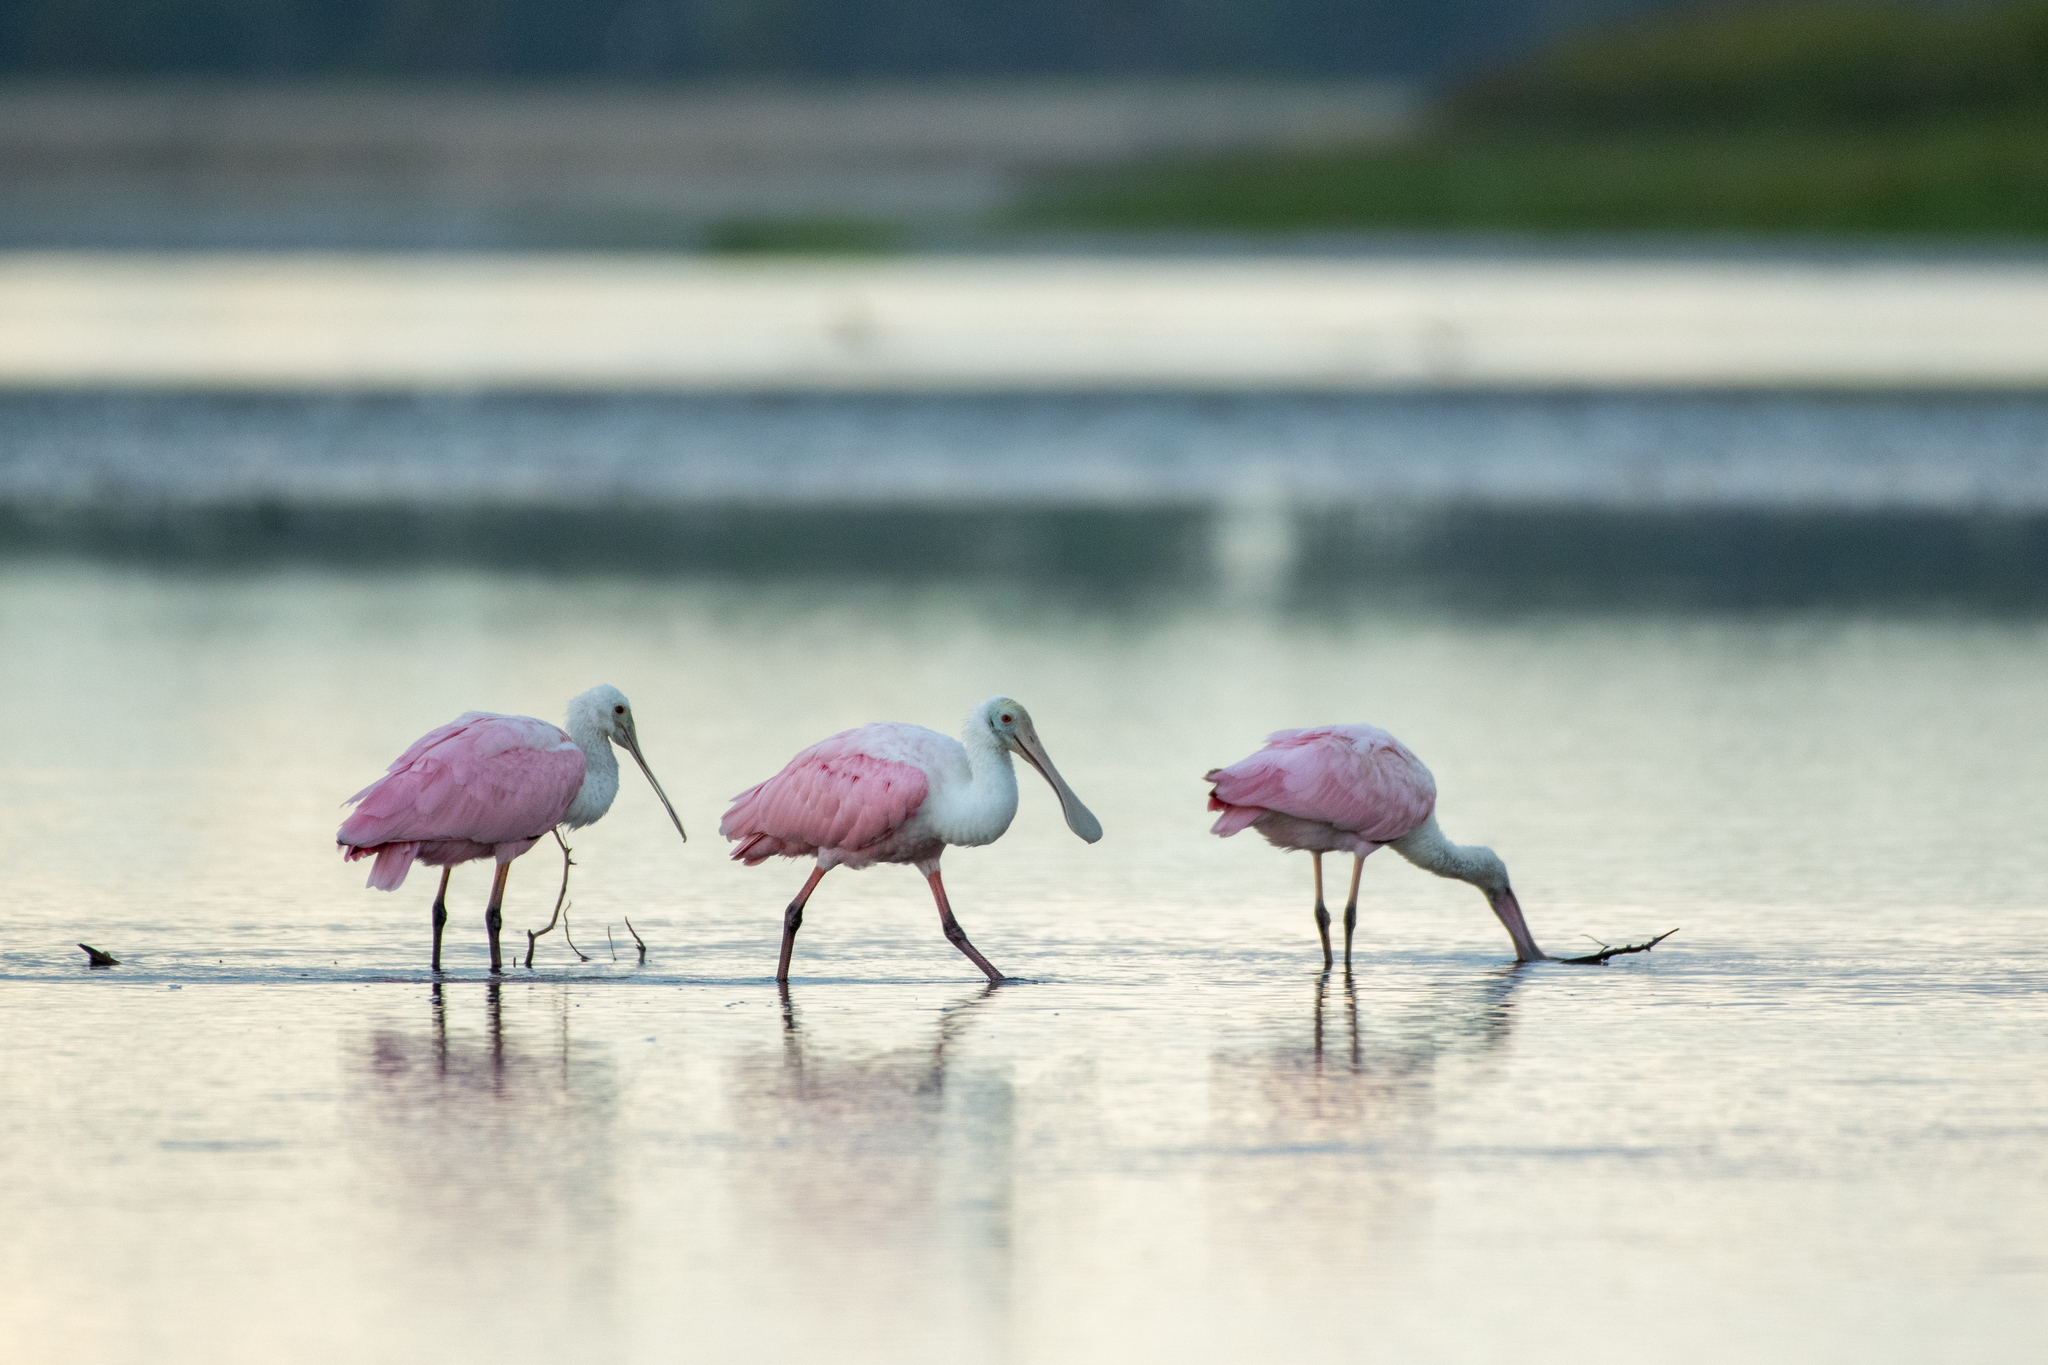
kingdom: Animalia
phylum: Chordata
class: Aves
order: Pelecaniformes
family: Threskiornithidae
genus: Platalea
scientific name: Platalea ajaja
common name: Roseate spoonbill
